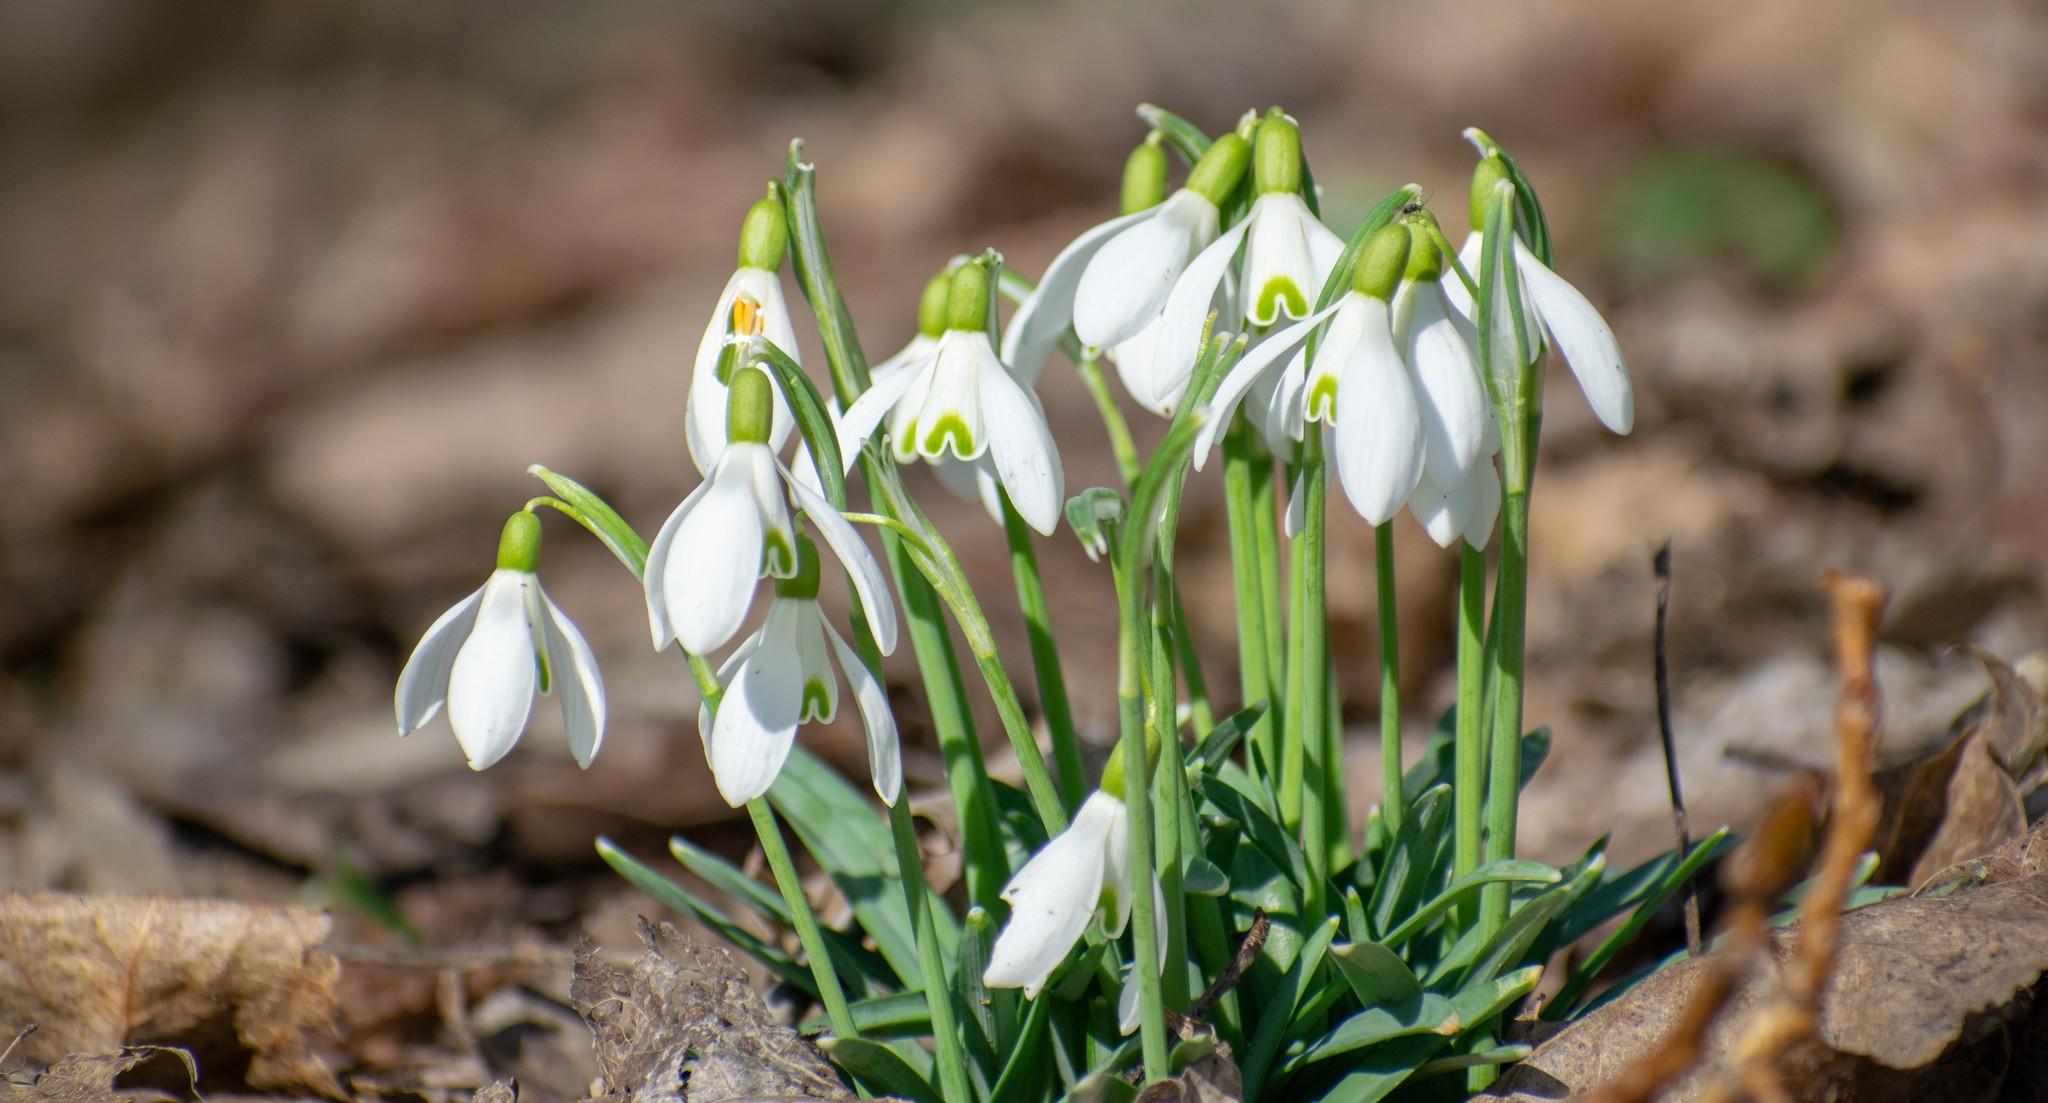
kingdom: Plantae
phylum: Tracheophyta
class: Liliopsida
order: Asparagales
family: Amaryllidaceae
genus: Galanthus
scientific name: Galanthus nivalis
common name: Snowdrop
